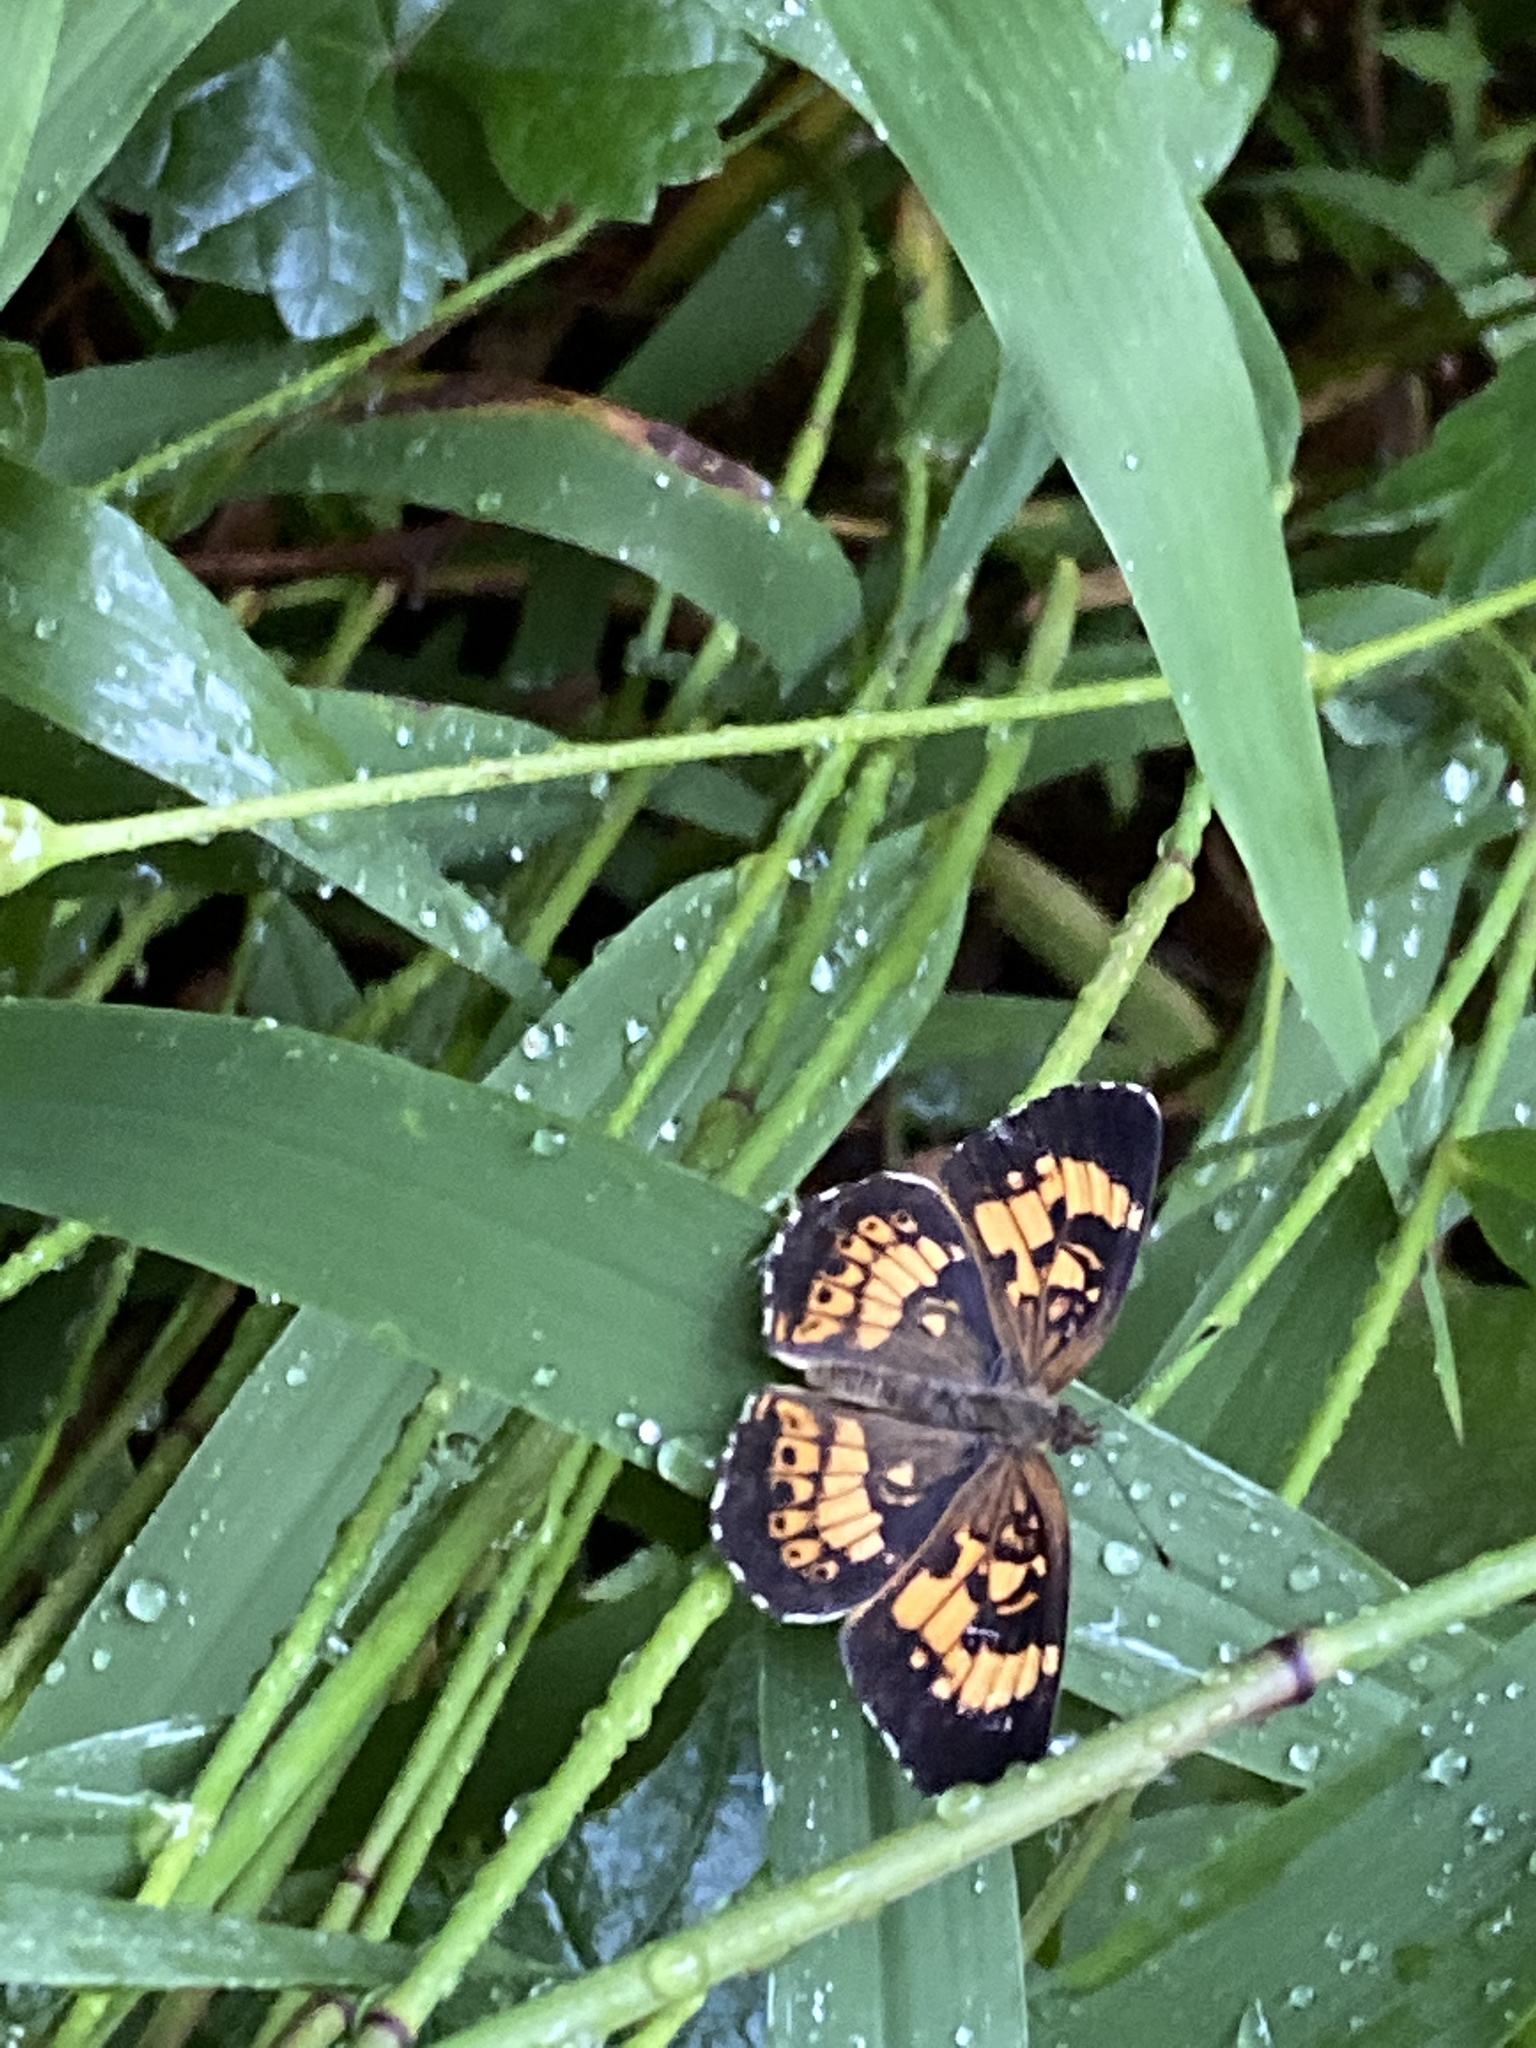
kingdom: Animalia
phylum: Arthropoda
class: Insecta
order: Lepidoptera
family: Nymphalidae
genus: Chlosyne
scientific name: Chlosyne nycteis
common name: Silvery checkerspot
